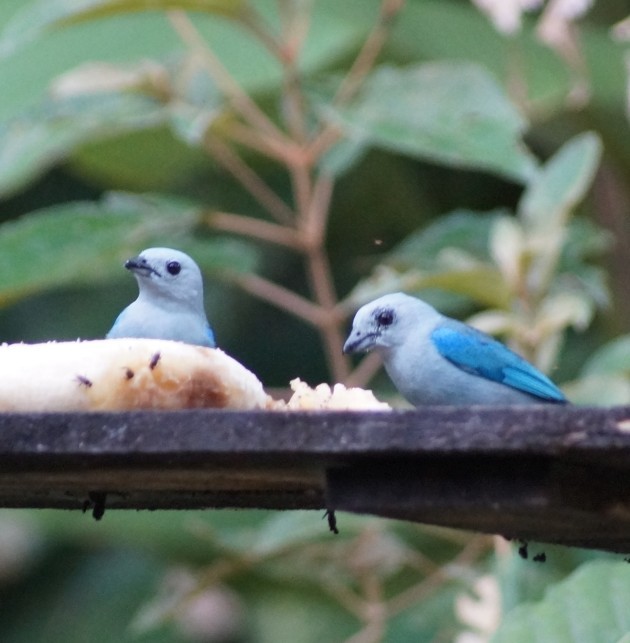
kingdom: Animalia
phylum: Chordata
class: Aves
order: Passeriformes
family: Thraupidae
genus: Thraupis
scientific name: Thraupis episcopus
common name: Blue-grey tanager
